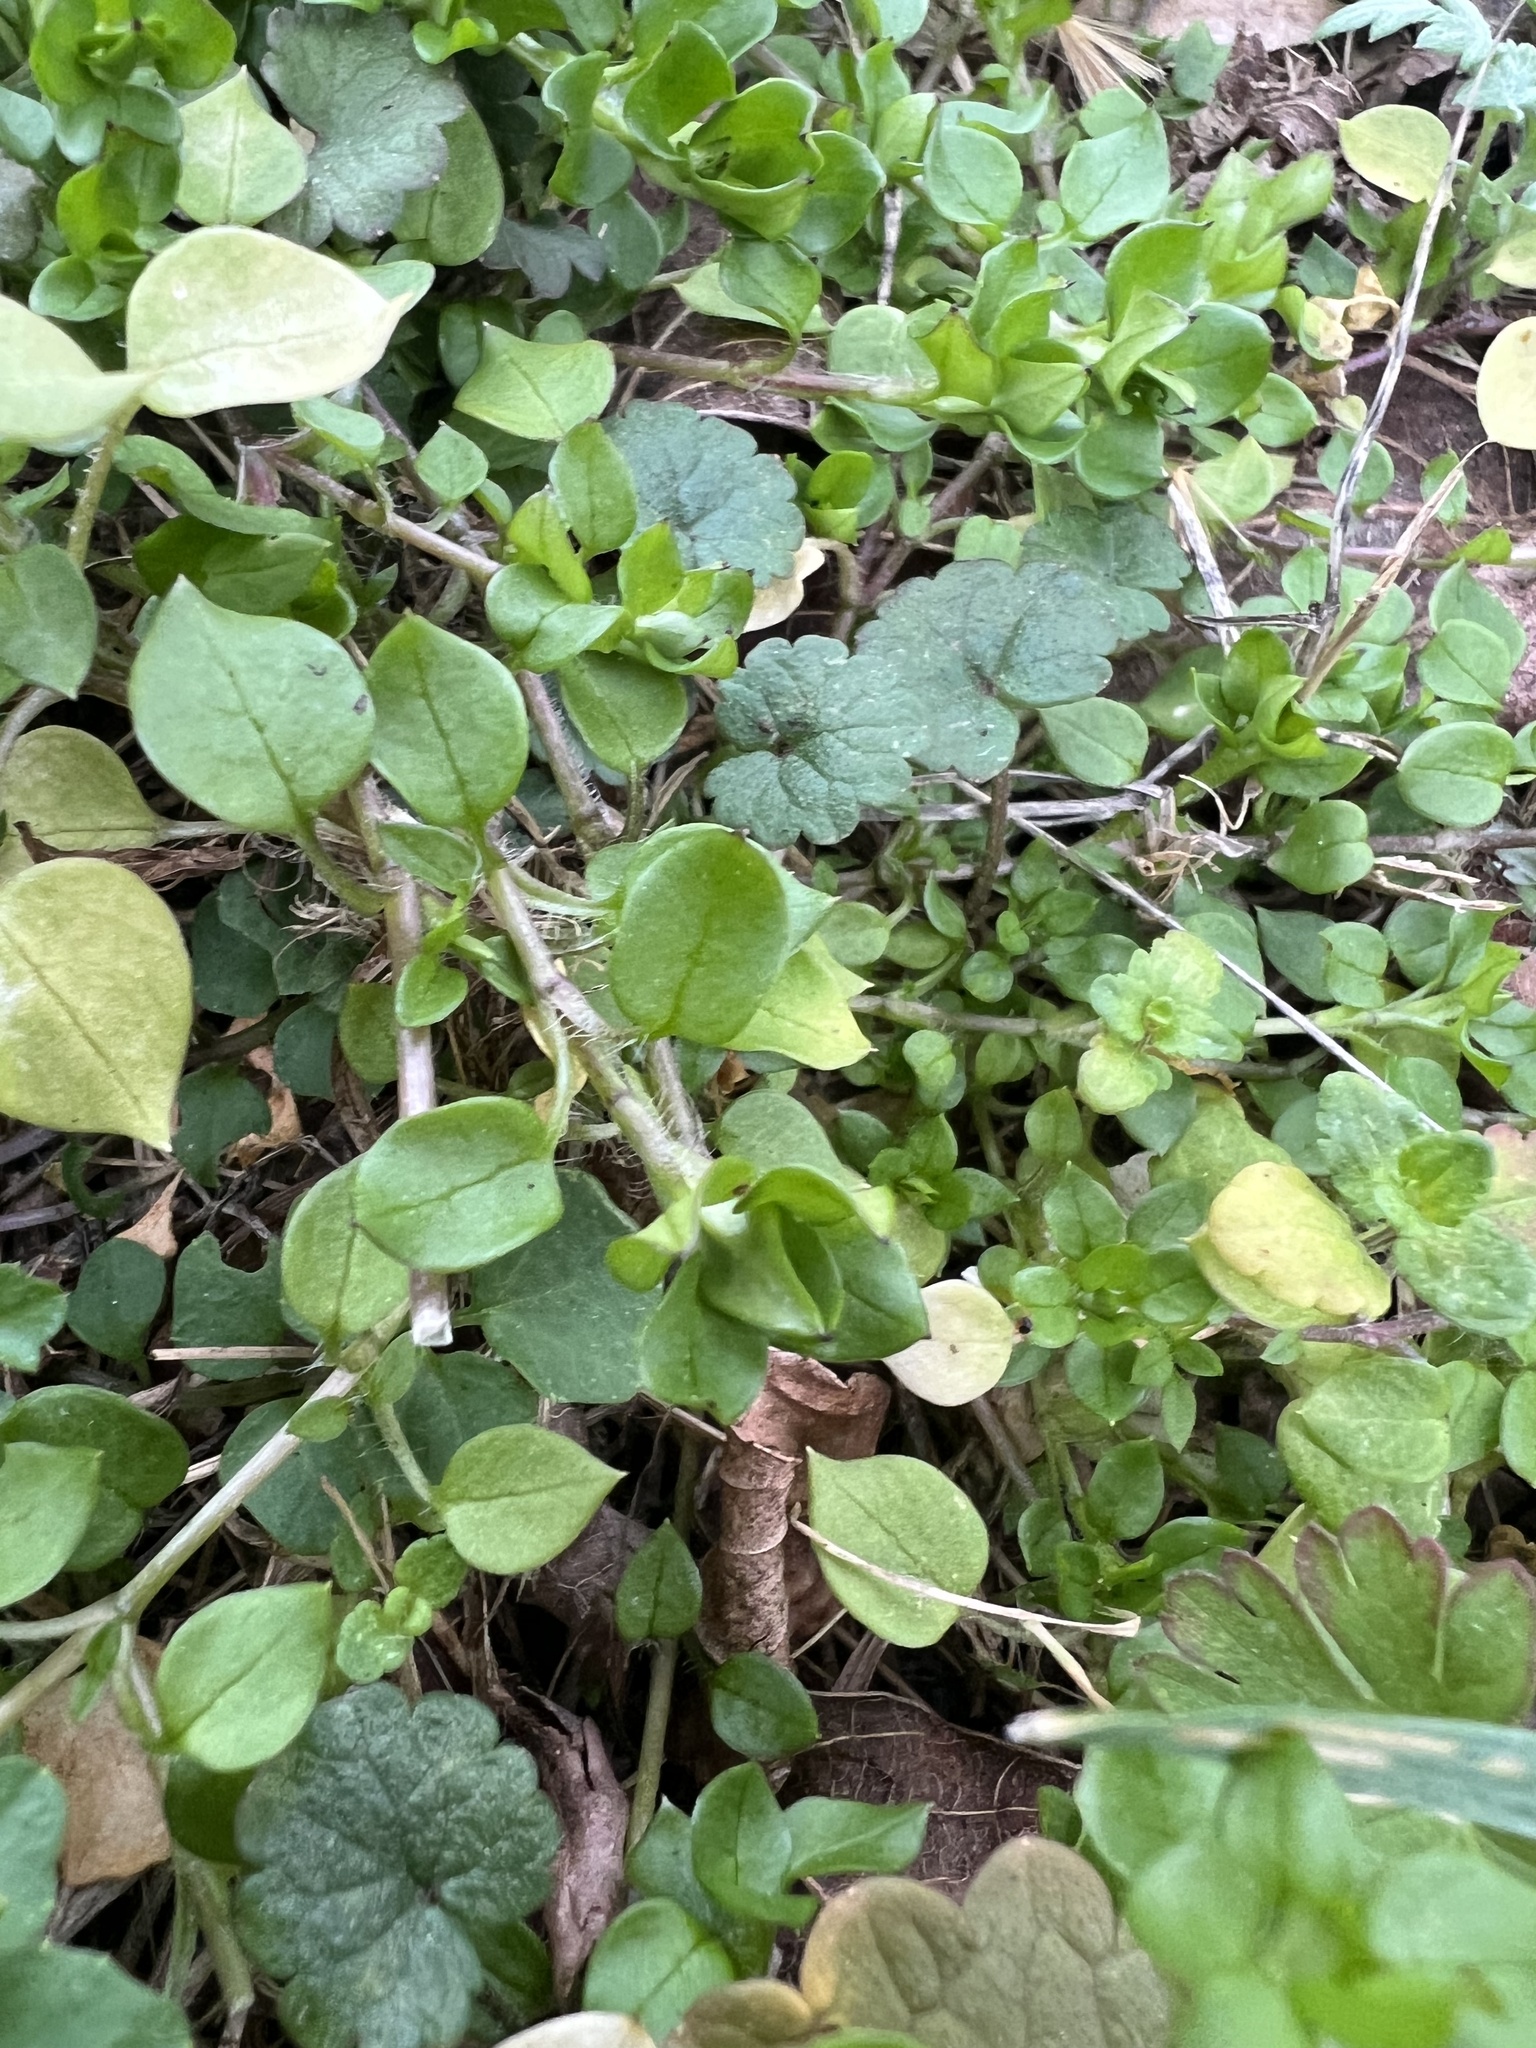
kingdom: Plantae
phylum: Tracheophyta
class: Magnoliopsida
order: Caryophyllales
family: Caryophyllaceae
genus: Stellaria
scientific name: Stellaria media
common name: Common chickweed
